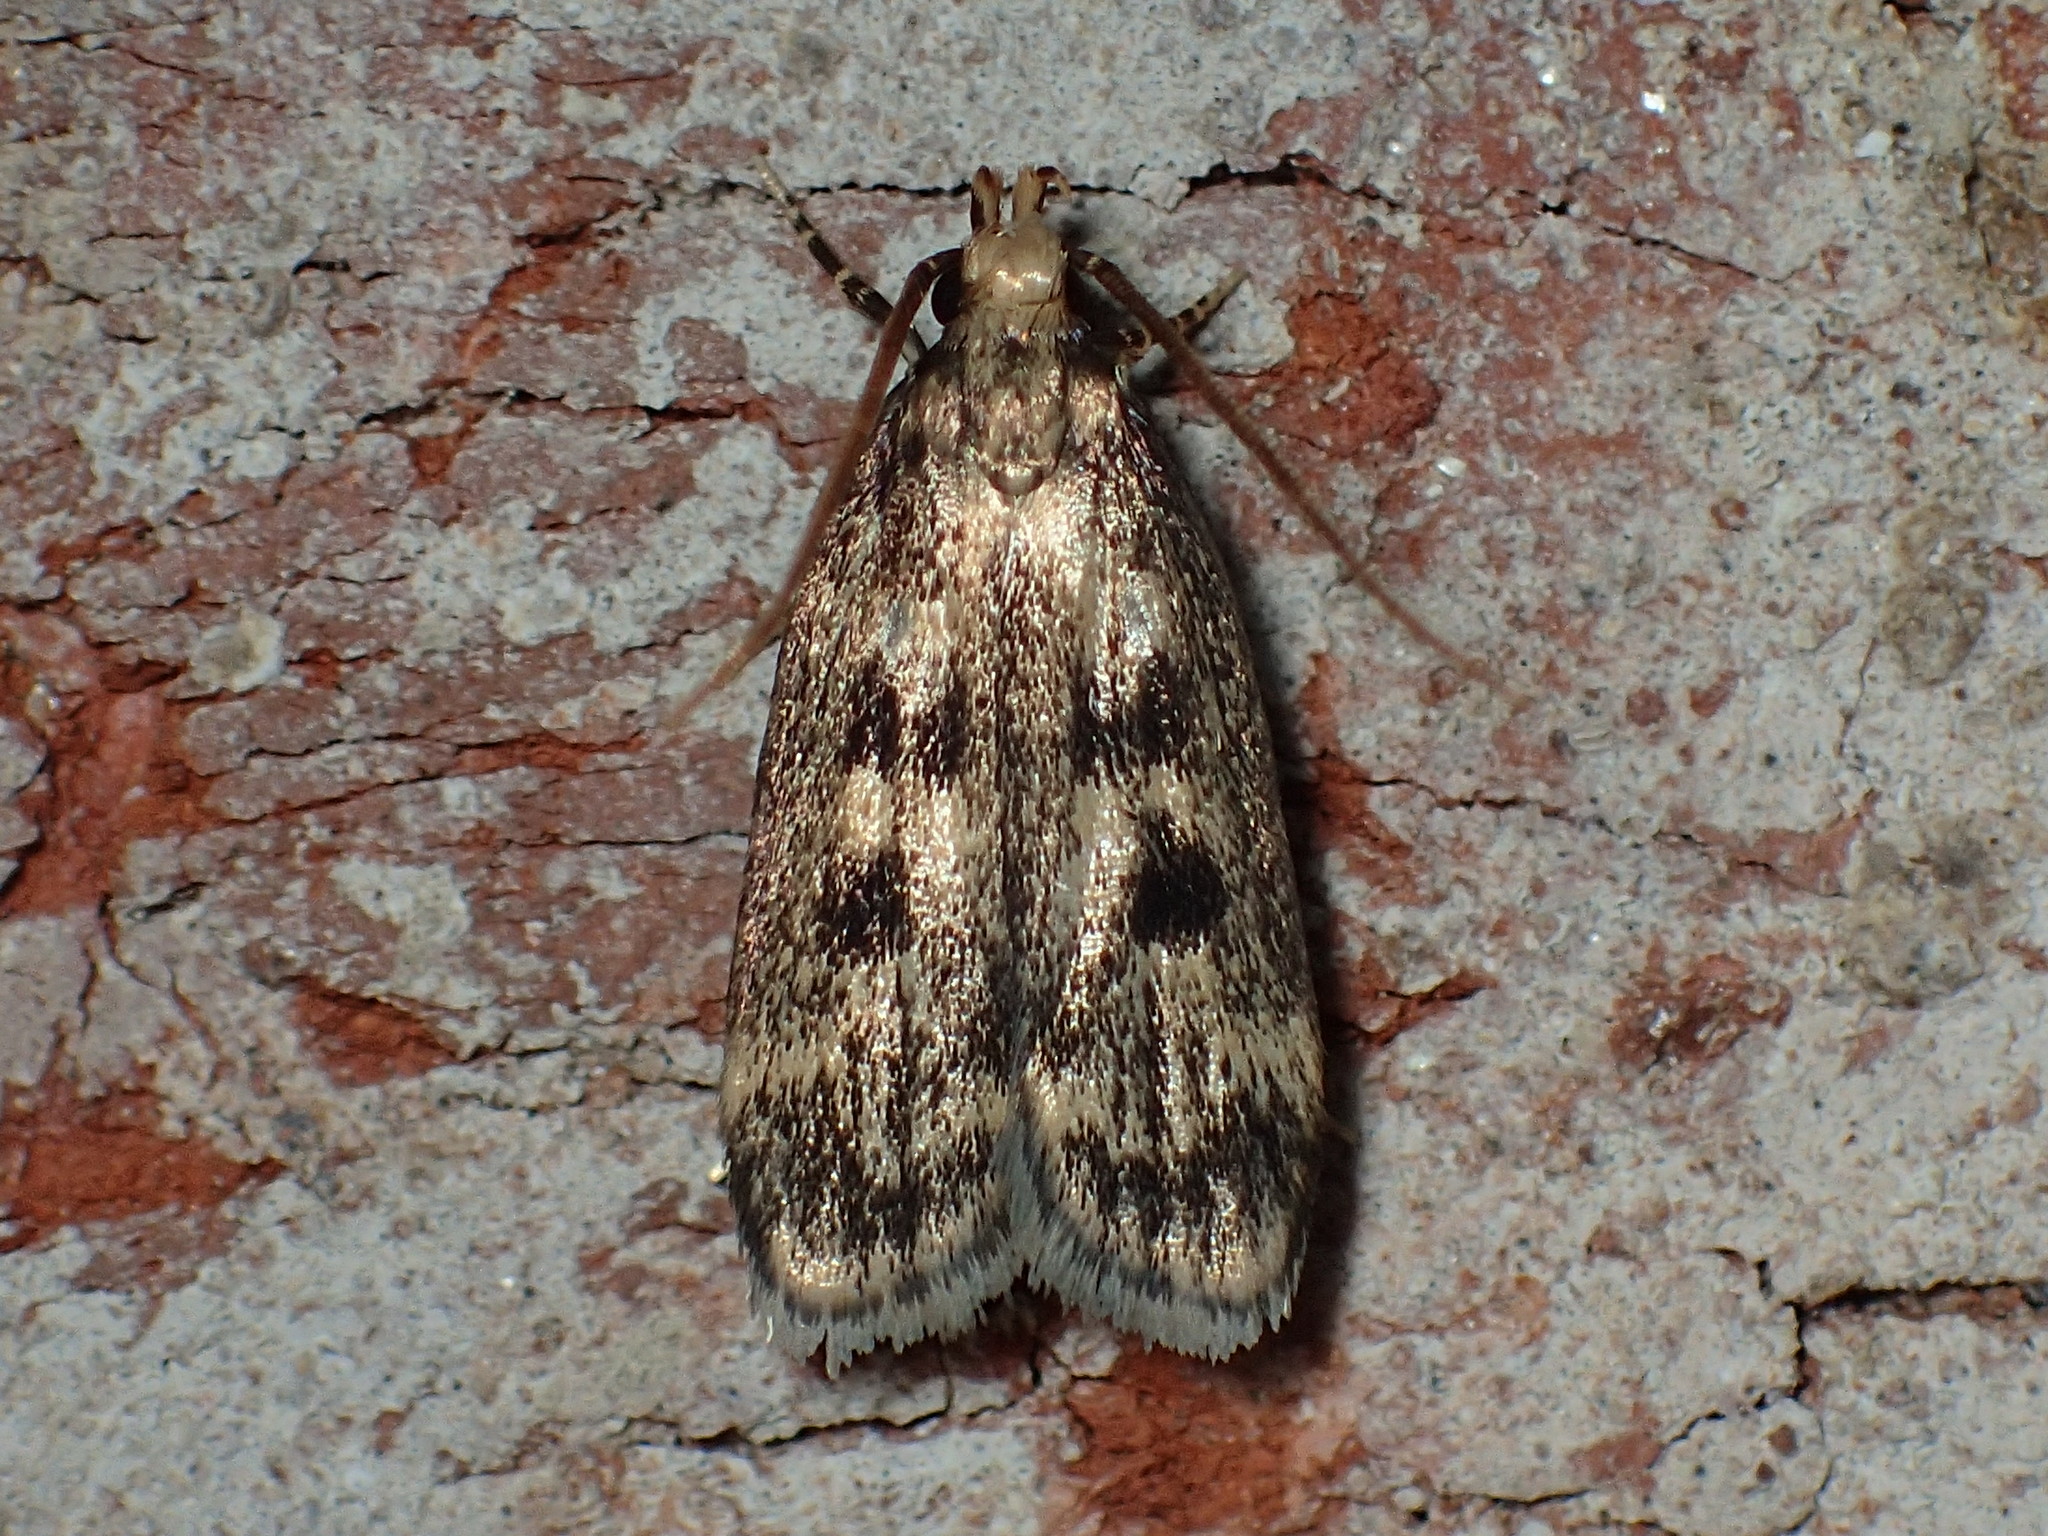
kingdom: Animalia
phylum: Arthropoda
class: Insecta
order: Lepidoptera
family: Lecithoceridae
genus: Martyringa
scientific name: Martyringa latipennis
